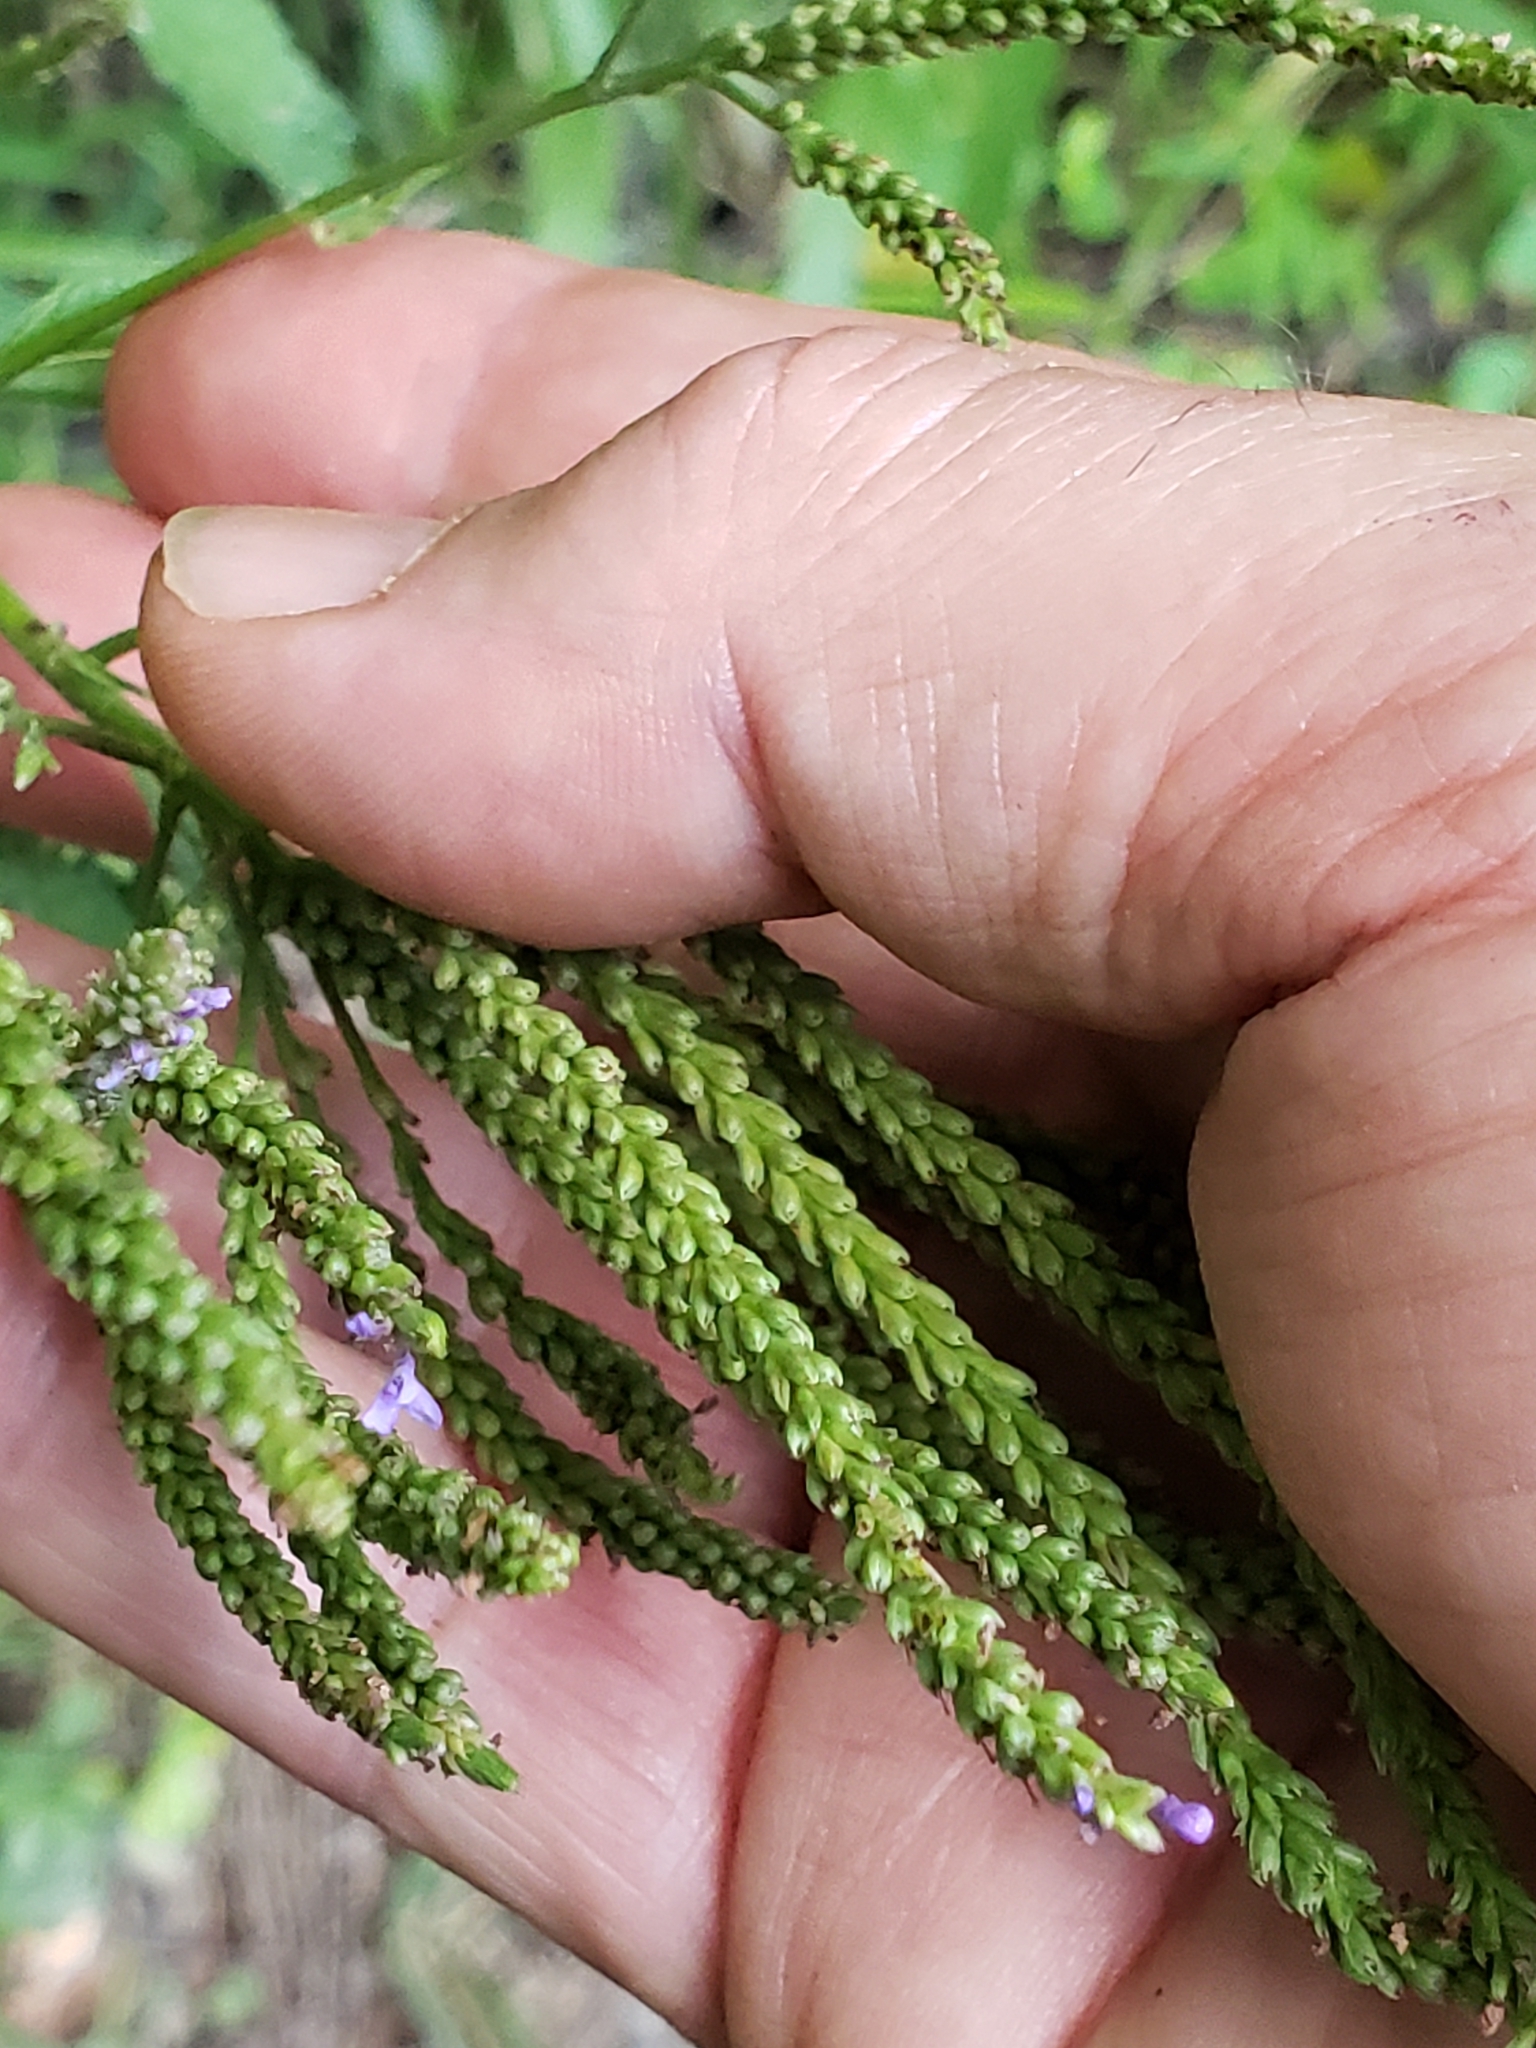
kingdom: Plantae
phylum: Tracheophyta
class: Magnoliopsida
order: Lamiales
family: Verbenaceae
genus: Verbena
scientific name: Verbena hastata
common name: American blue vervain
